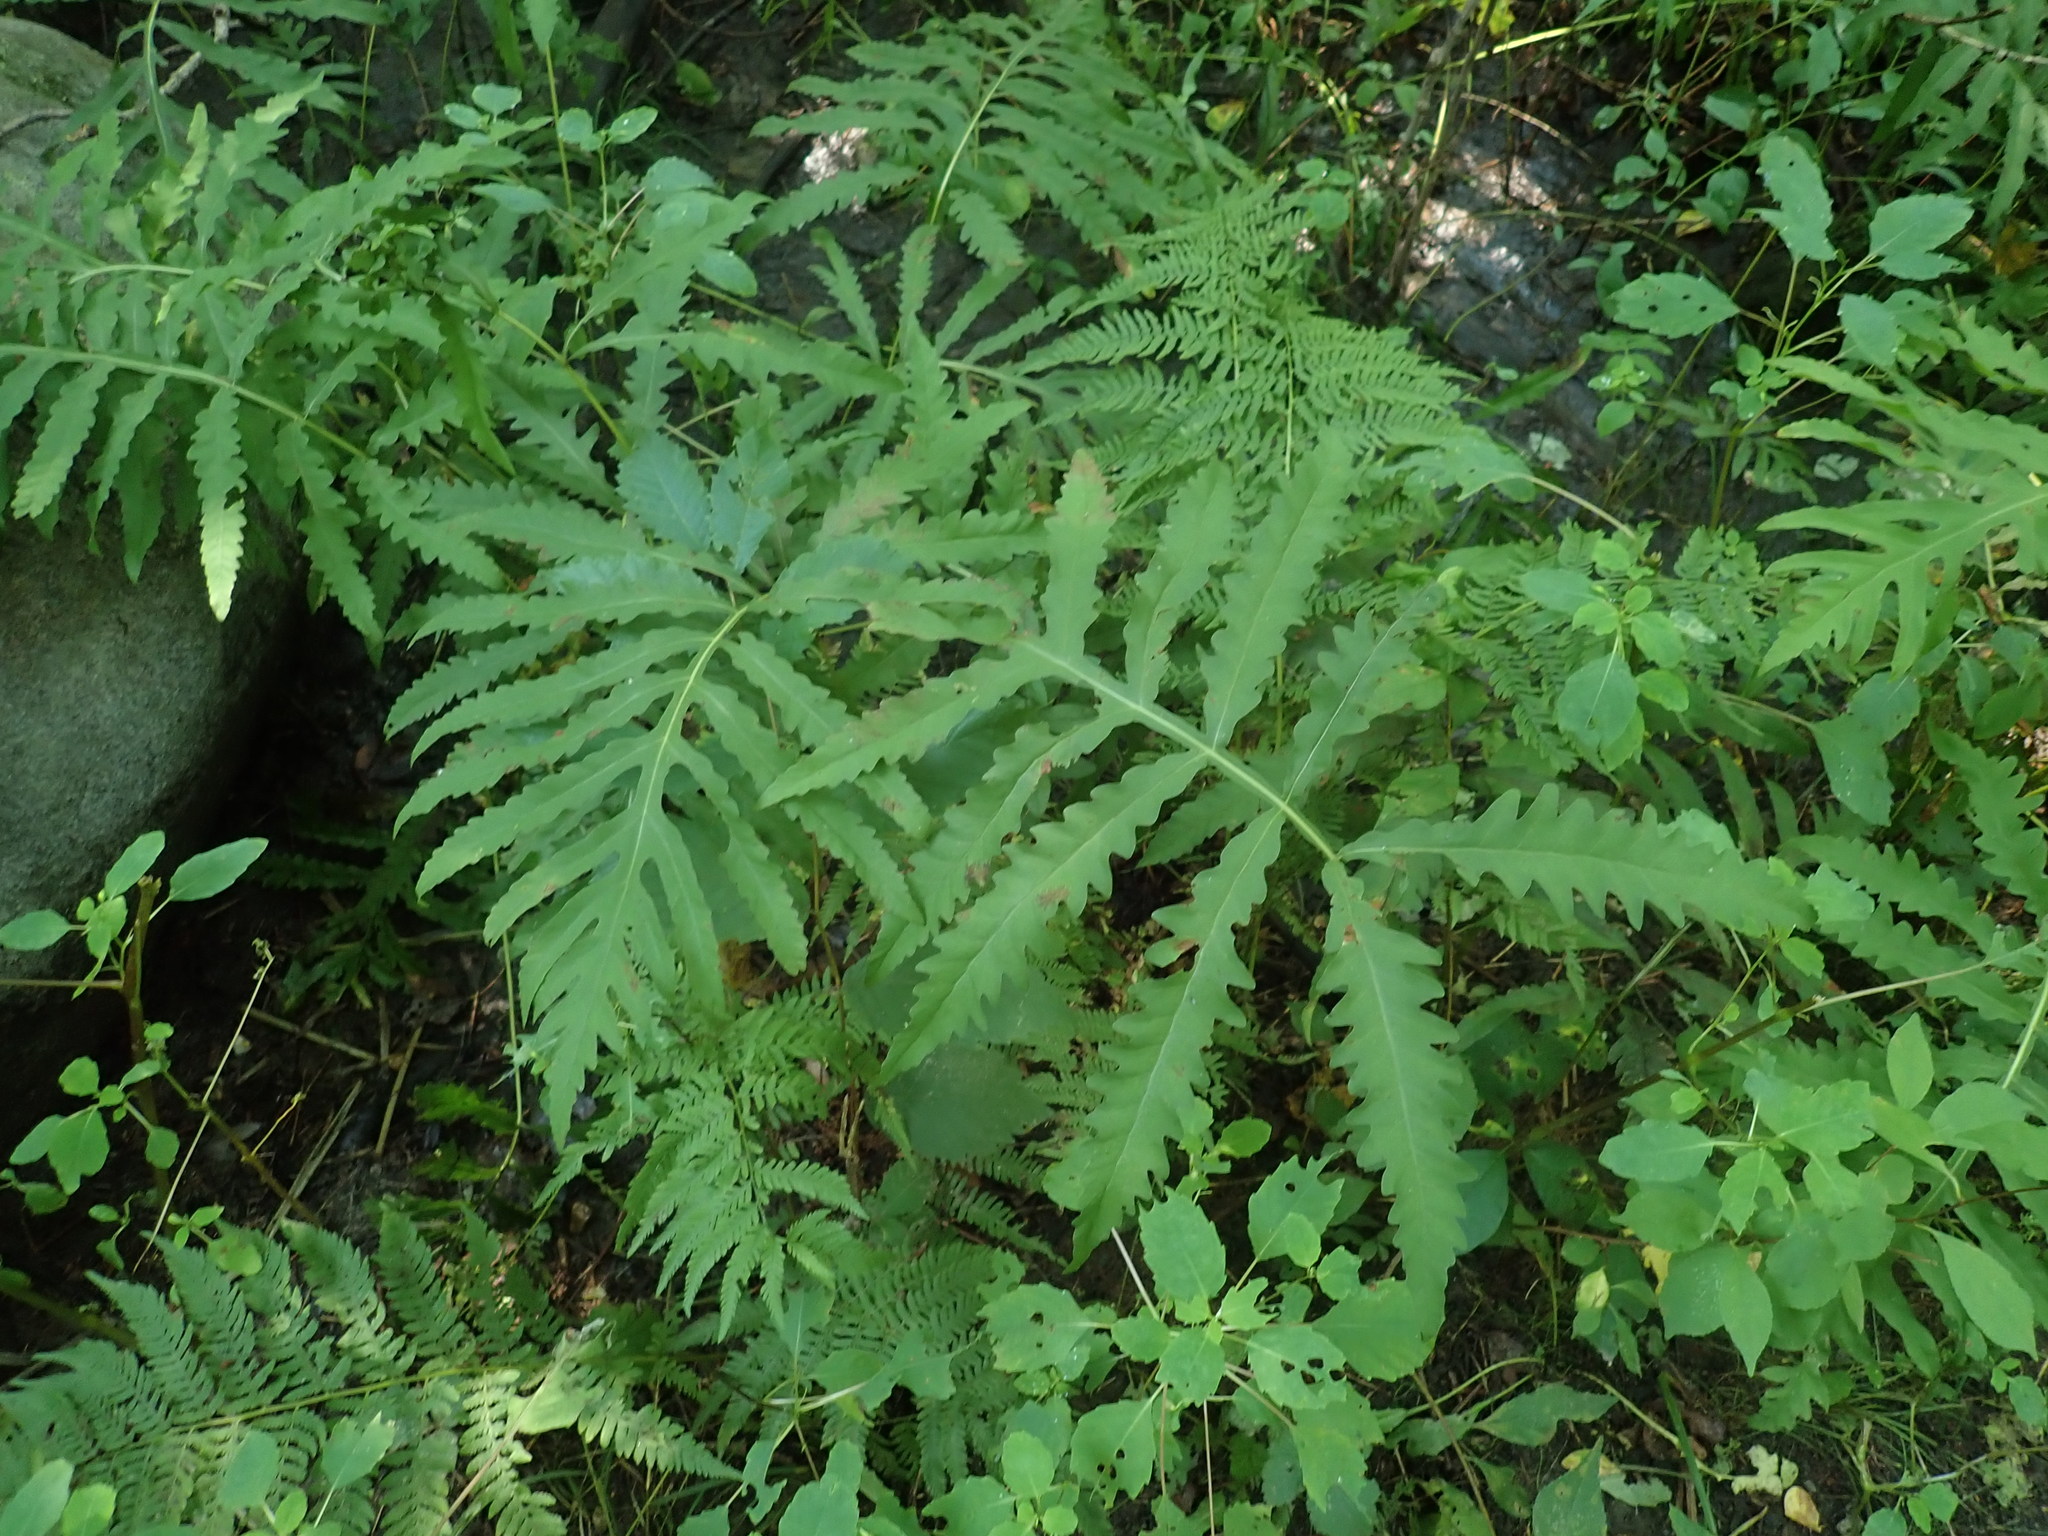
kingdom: Plantae
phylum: Tracheophyta
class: Polypodiopsida
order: Polypodiales
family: Onocleaceae
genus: Onoclea
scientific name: Onoclea sensibilis
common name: Sensitive fern
